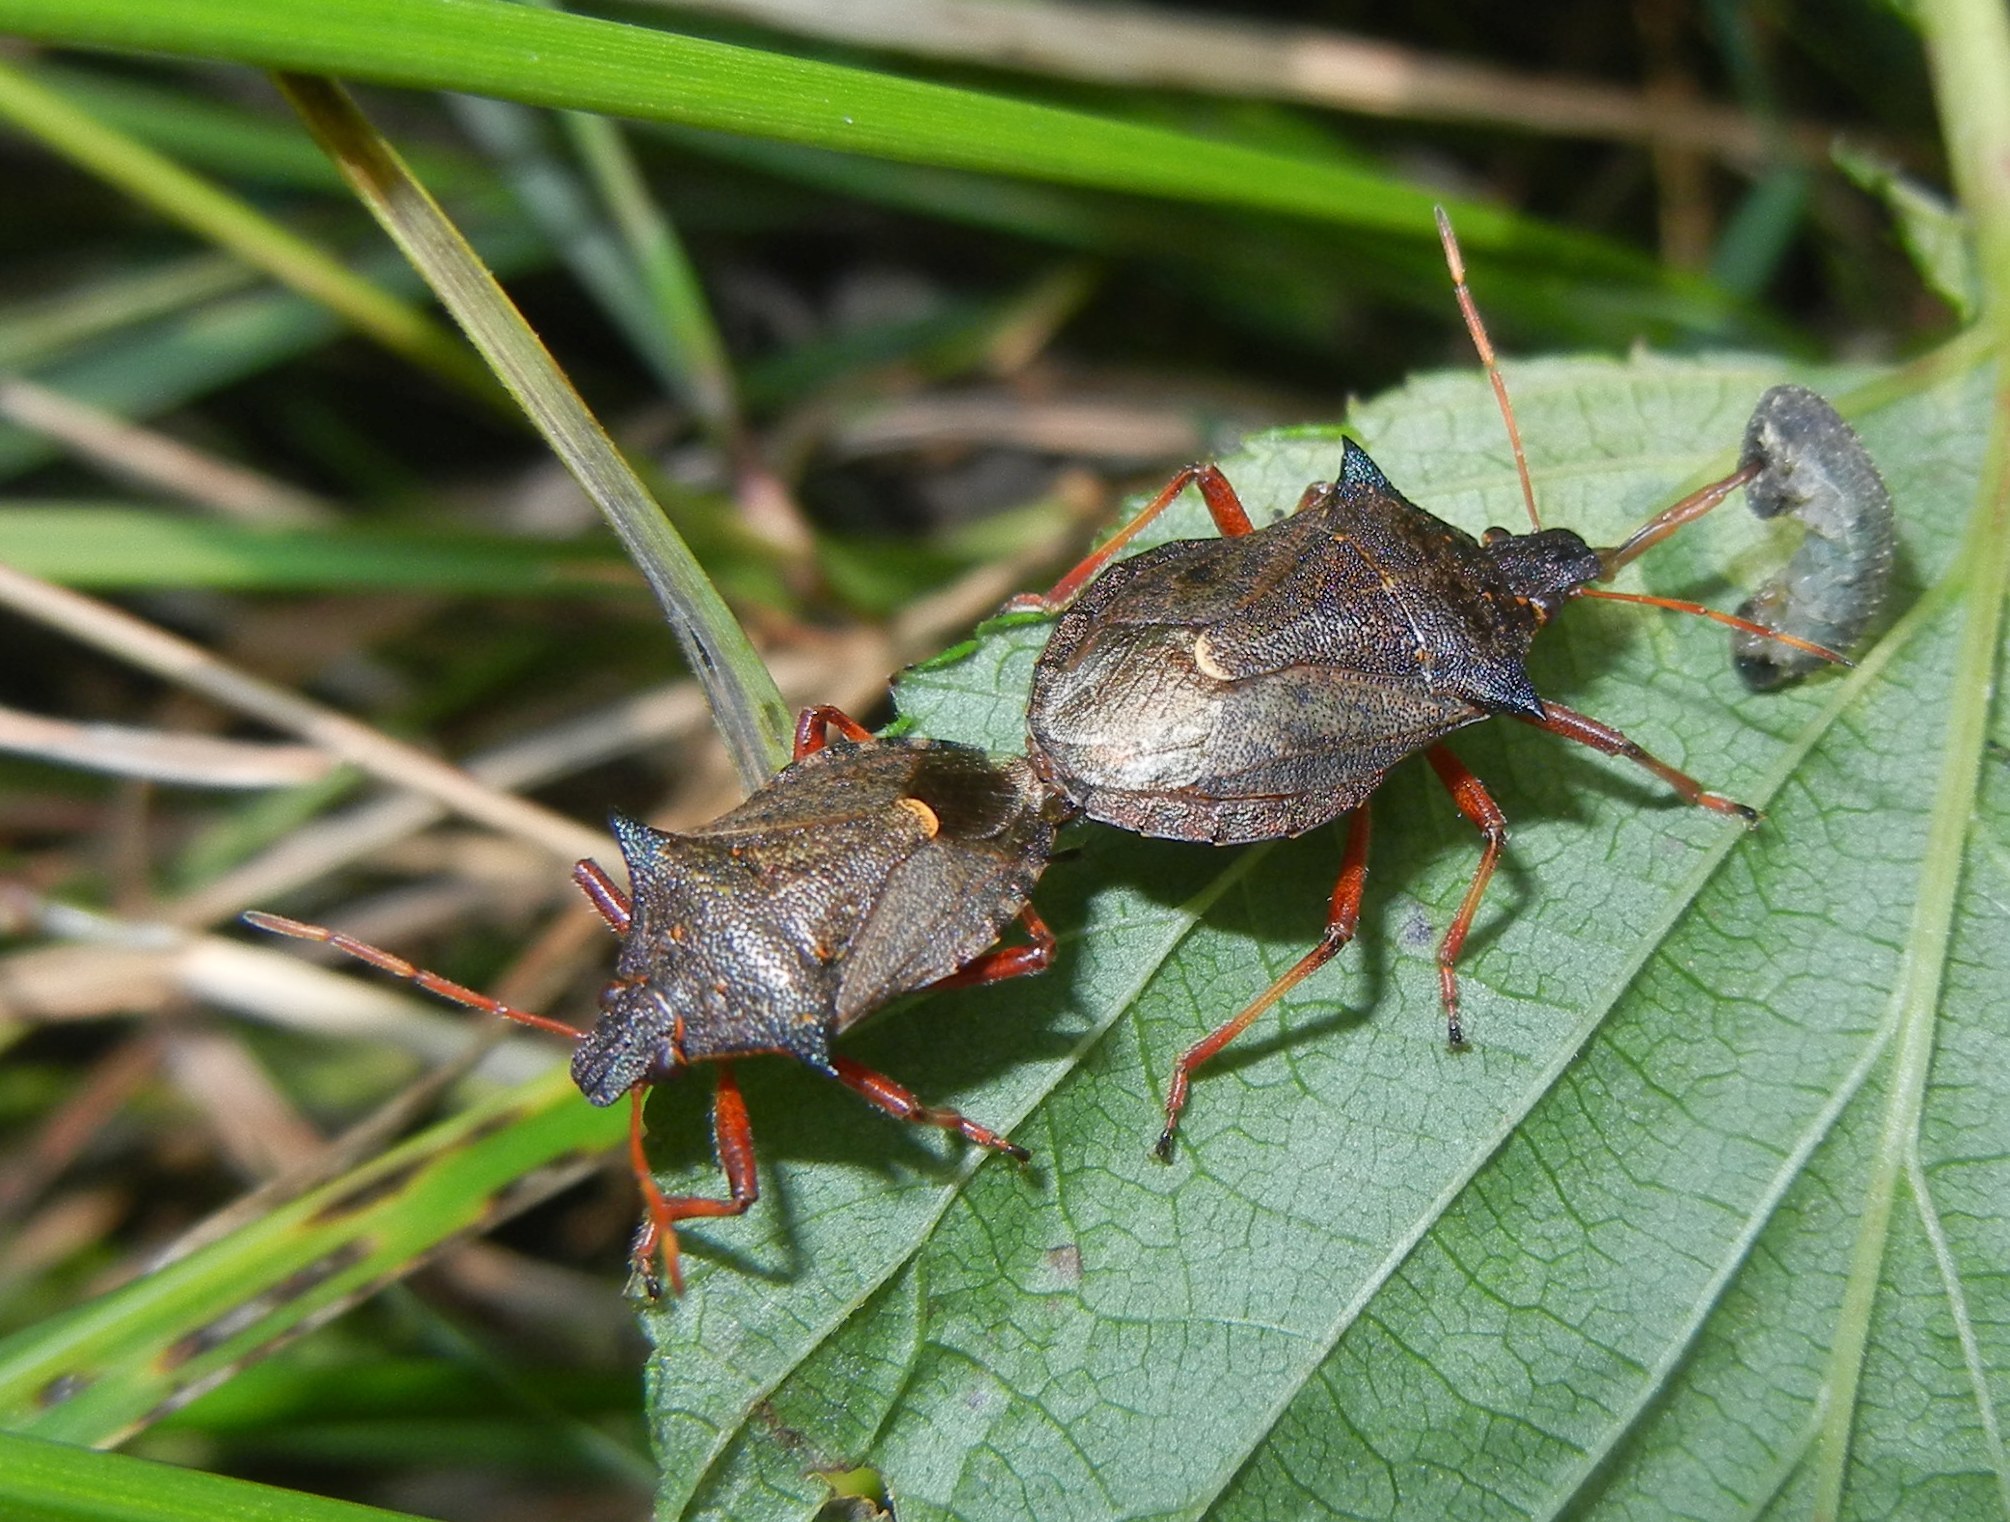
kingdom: Animalia
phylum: Arthropoda
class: Insecta
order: Hemiptera
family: Pentatomidae
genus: Picromerus
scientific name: Picromerus bidens
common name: Spiked shieldbug
